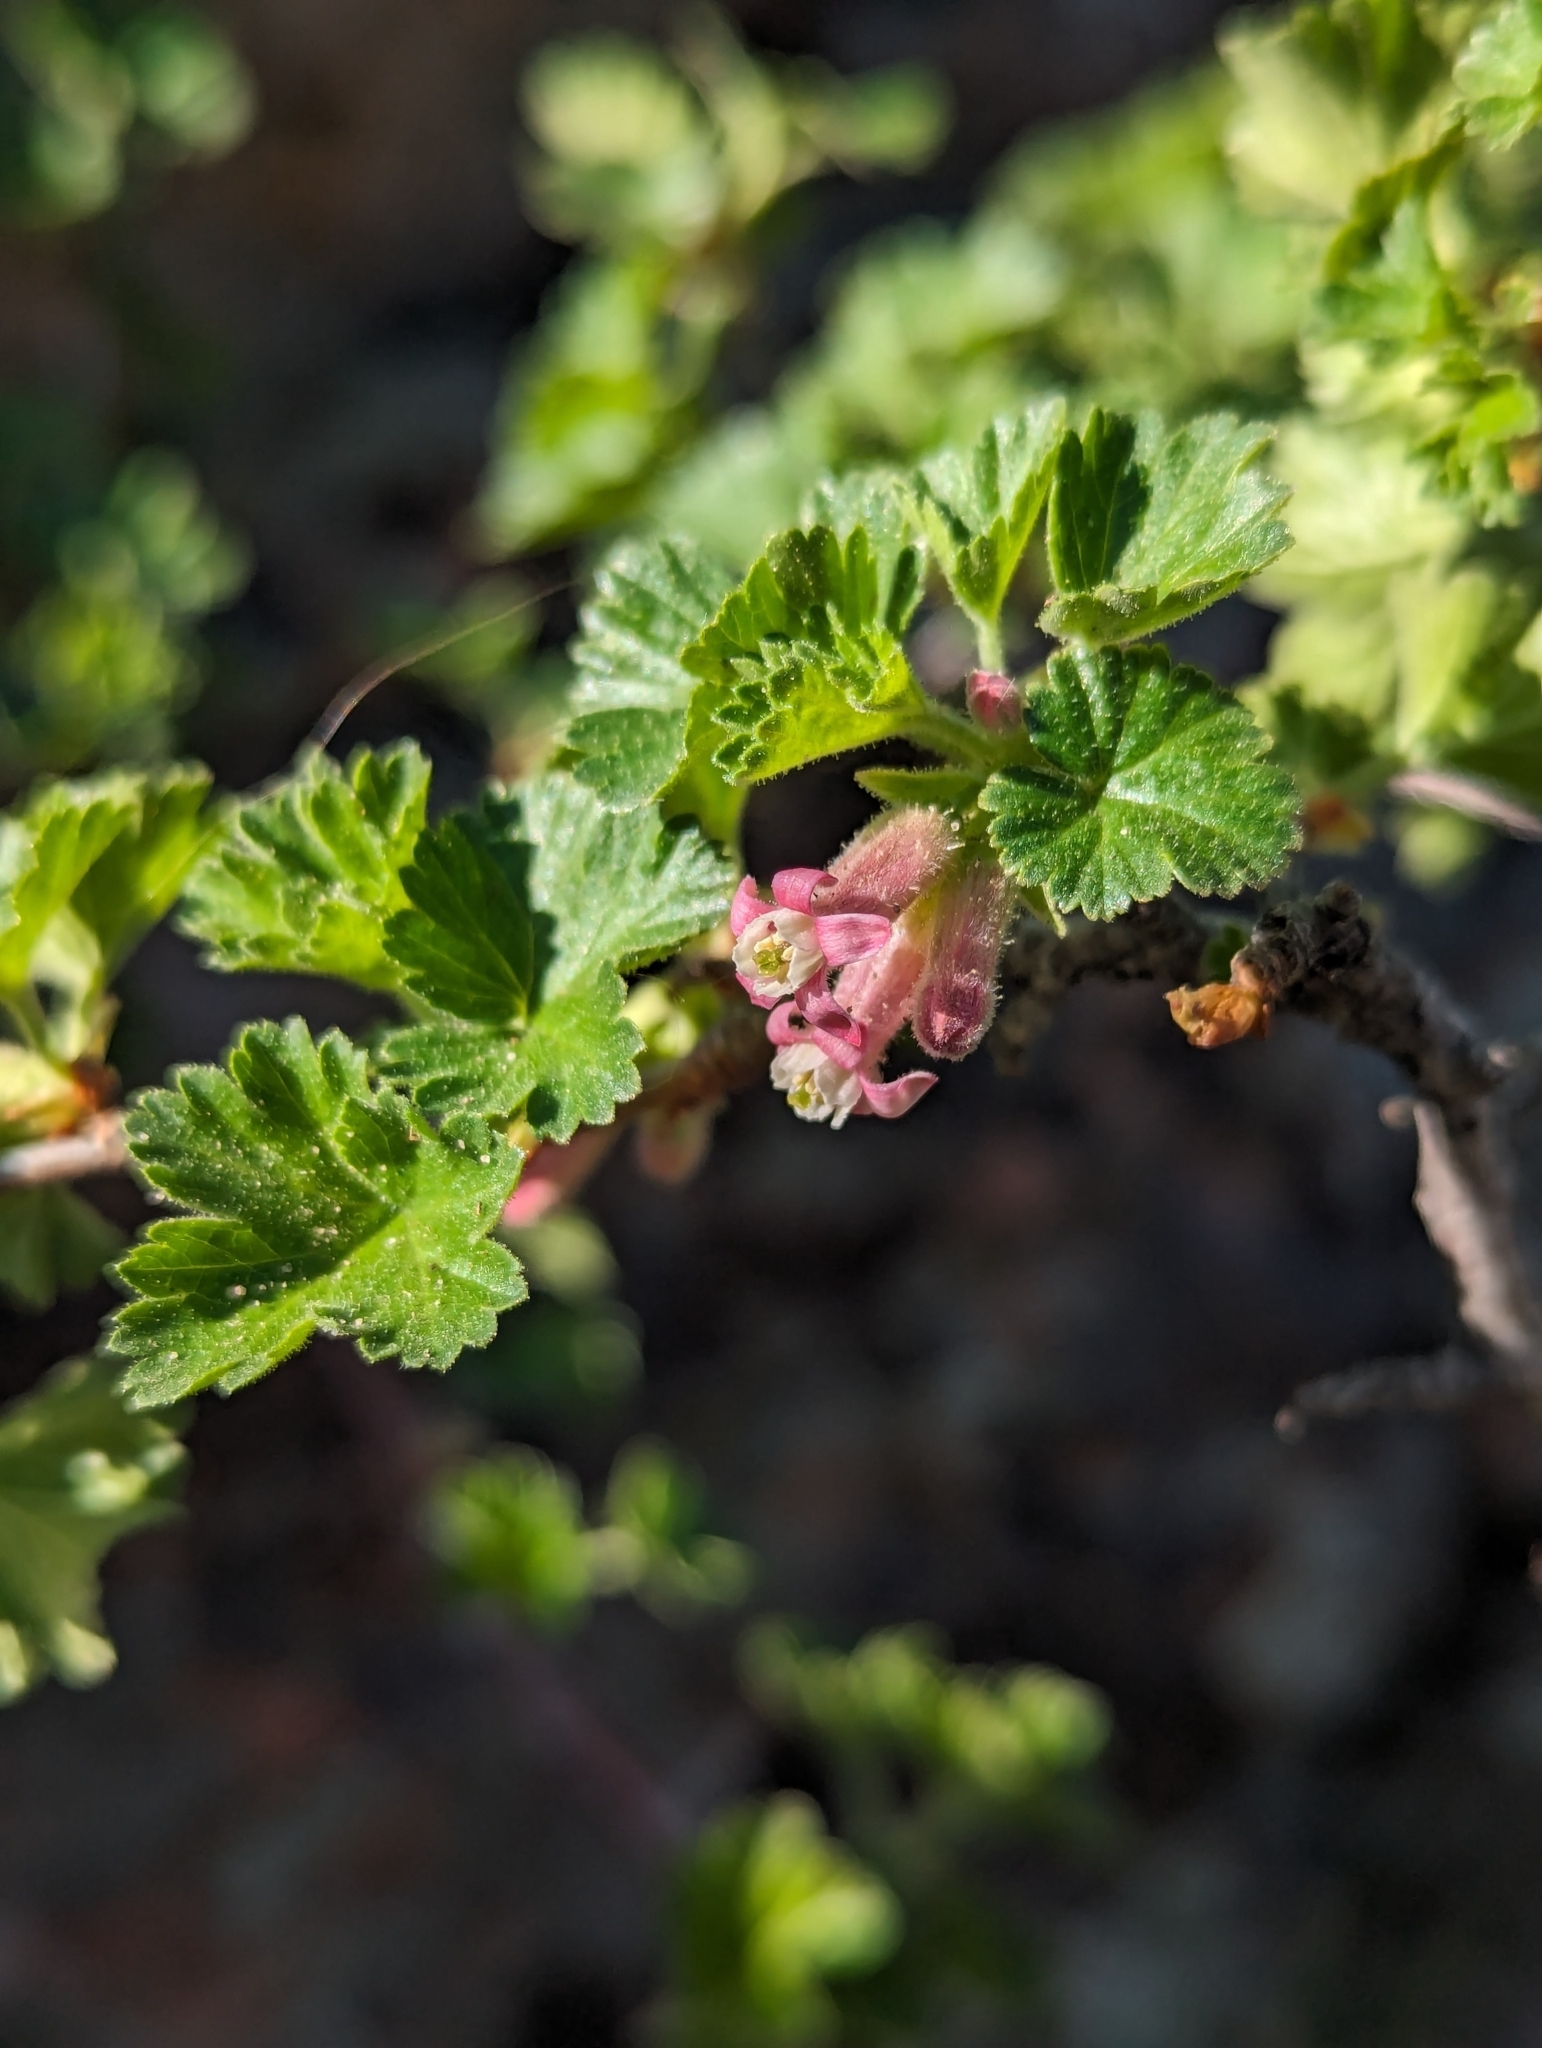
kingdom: Plantae
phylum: Tracheophyta
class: Magnoliopsida
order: Saxifragales
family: Grossulariaceae
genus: Ribes
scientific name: Ribes cereum
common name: Wax currant
